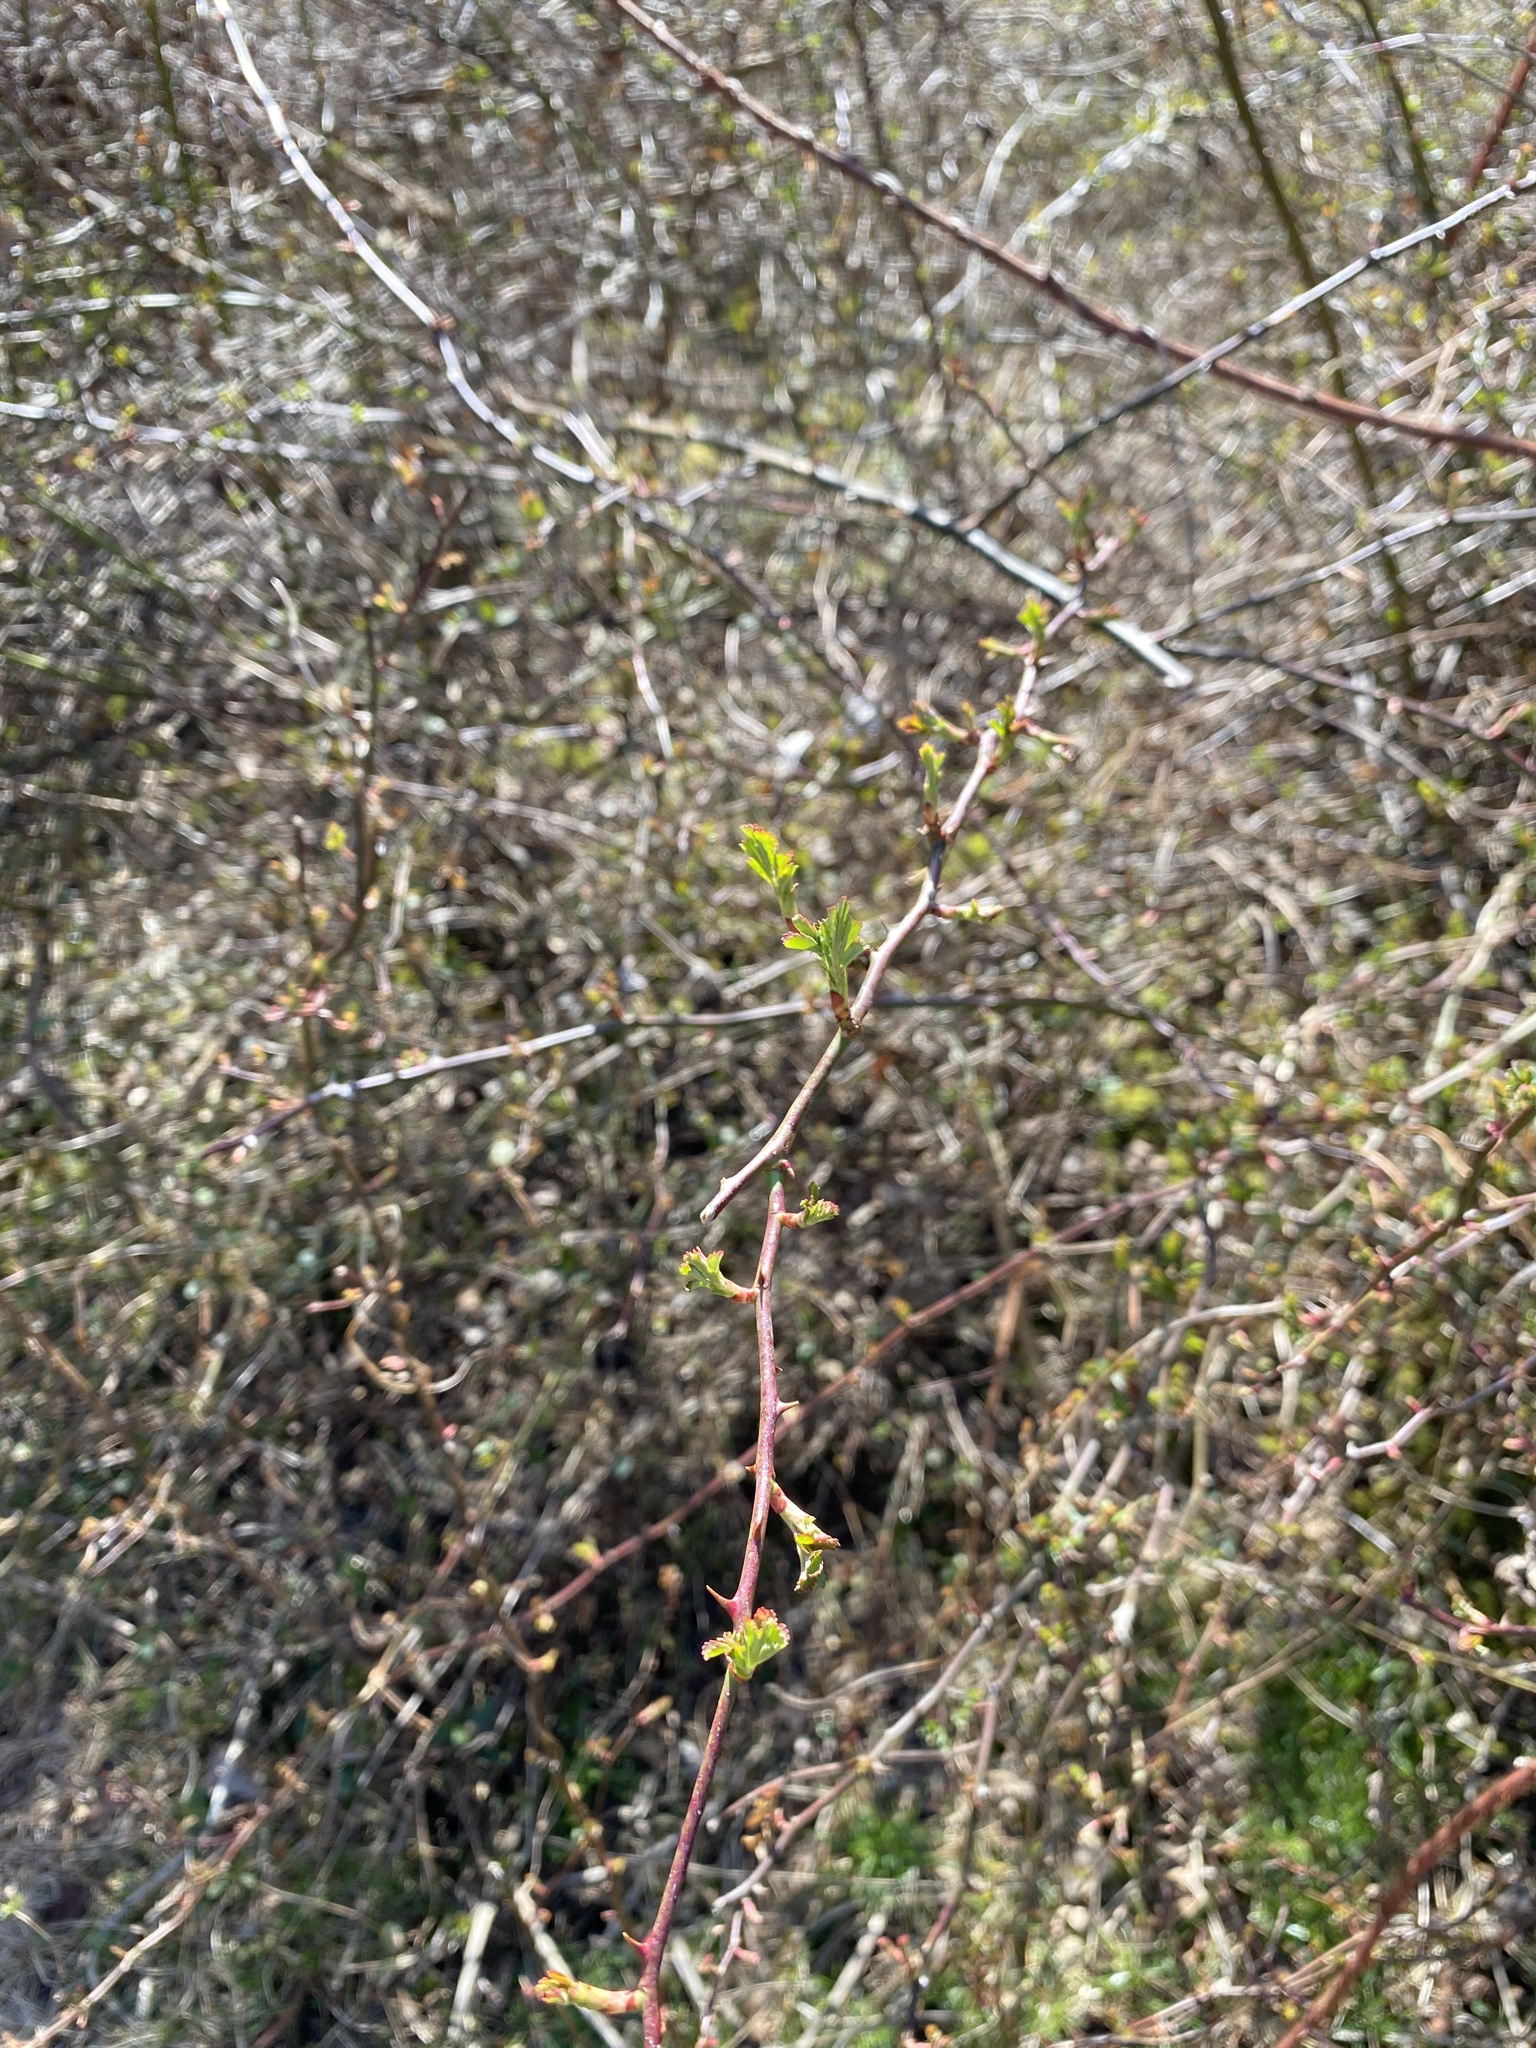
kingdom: Plantae
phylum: Tracheophyta
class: Magnoliopsida
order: Rosales
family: Rosaceae
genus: Rosa
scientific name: Rosa multiflora
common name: Multiflora rose
